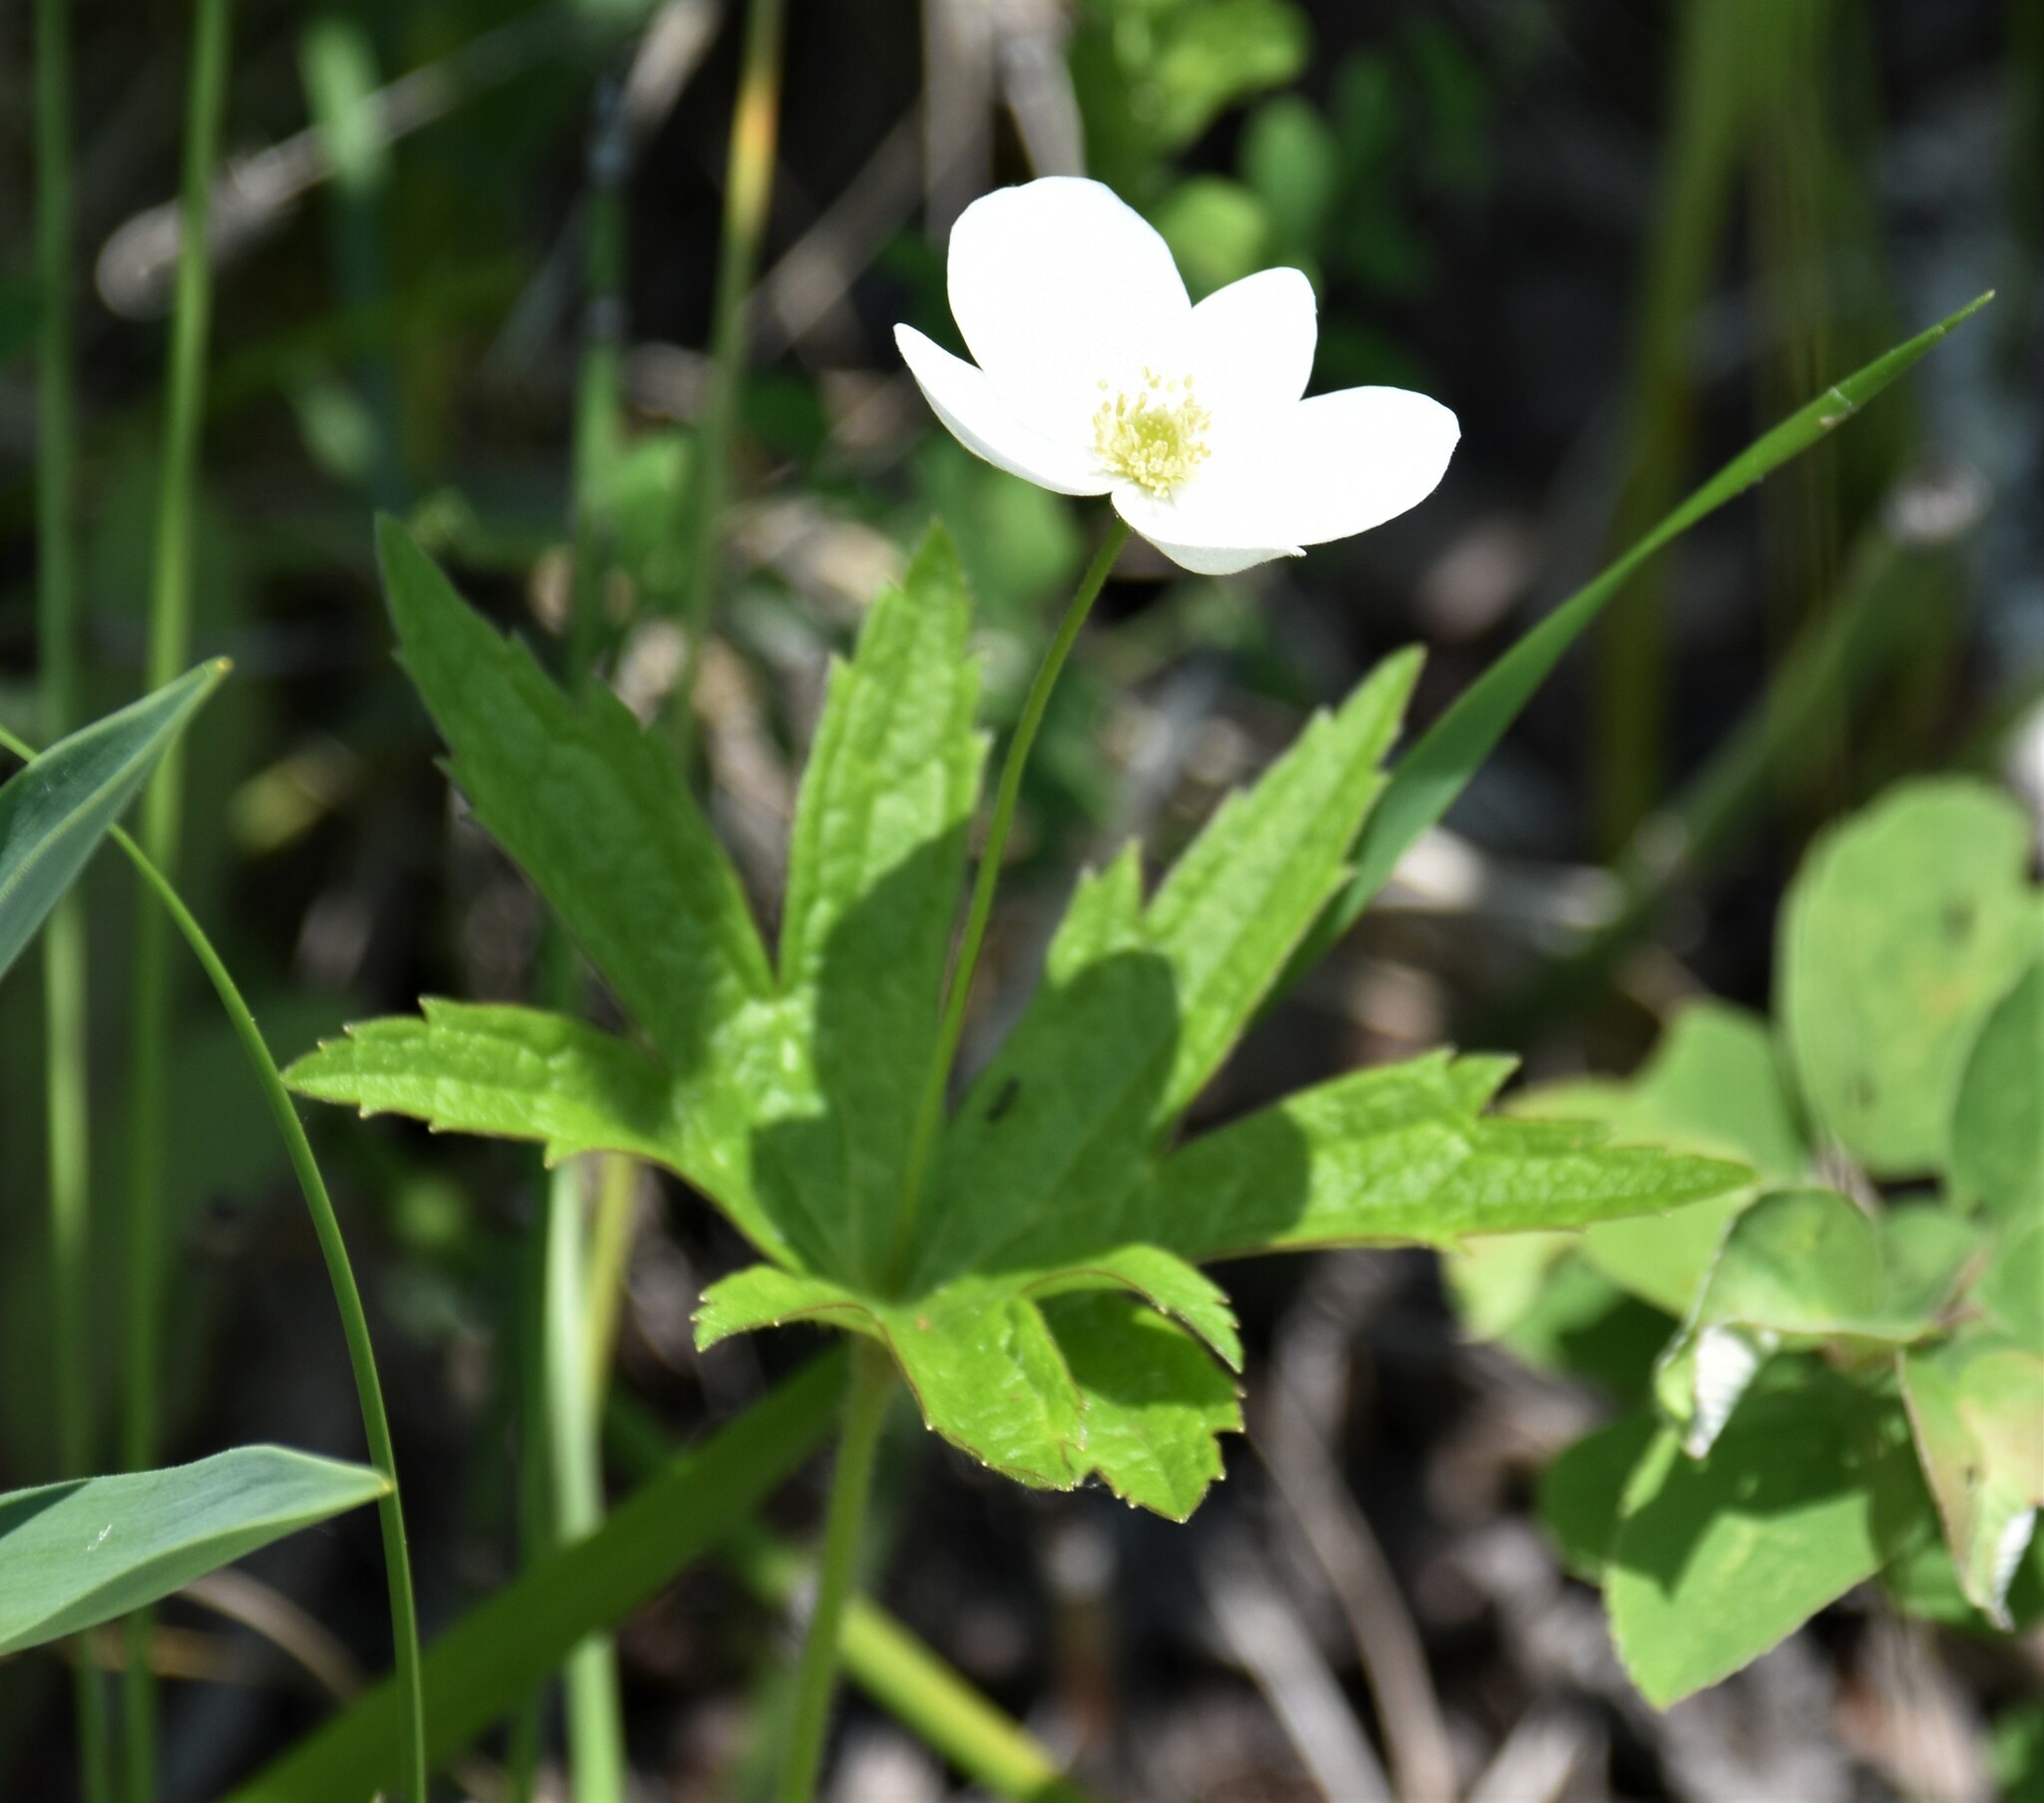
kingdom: Plantae
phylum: Tracheophyta
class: Magnoliopsida
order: Ranunculales
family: Ranunculaceae
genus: Anemonastrum
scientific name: Anemonastrum canadense
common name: Canada anemone
